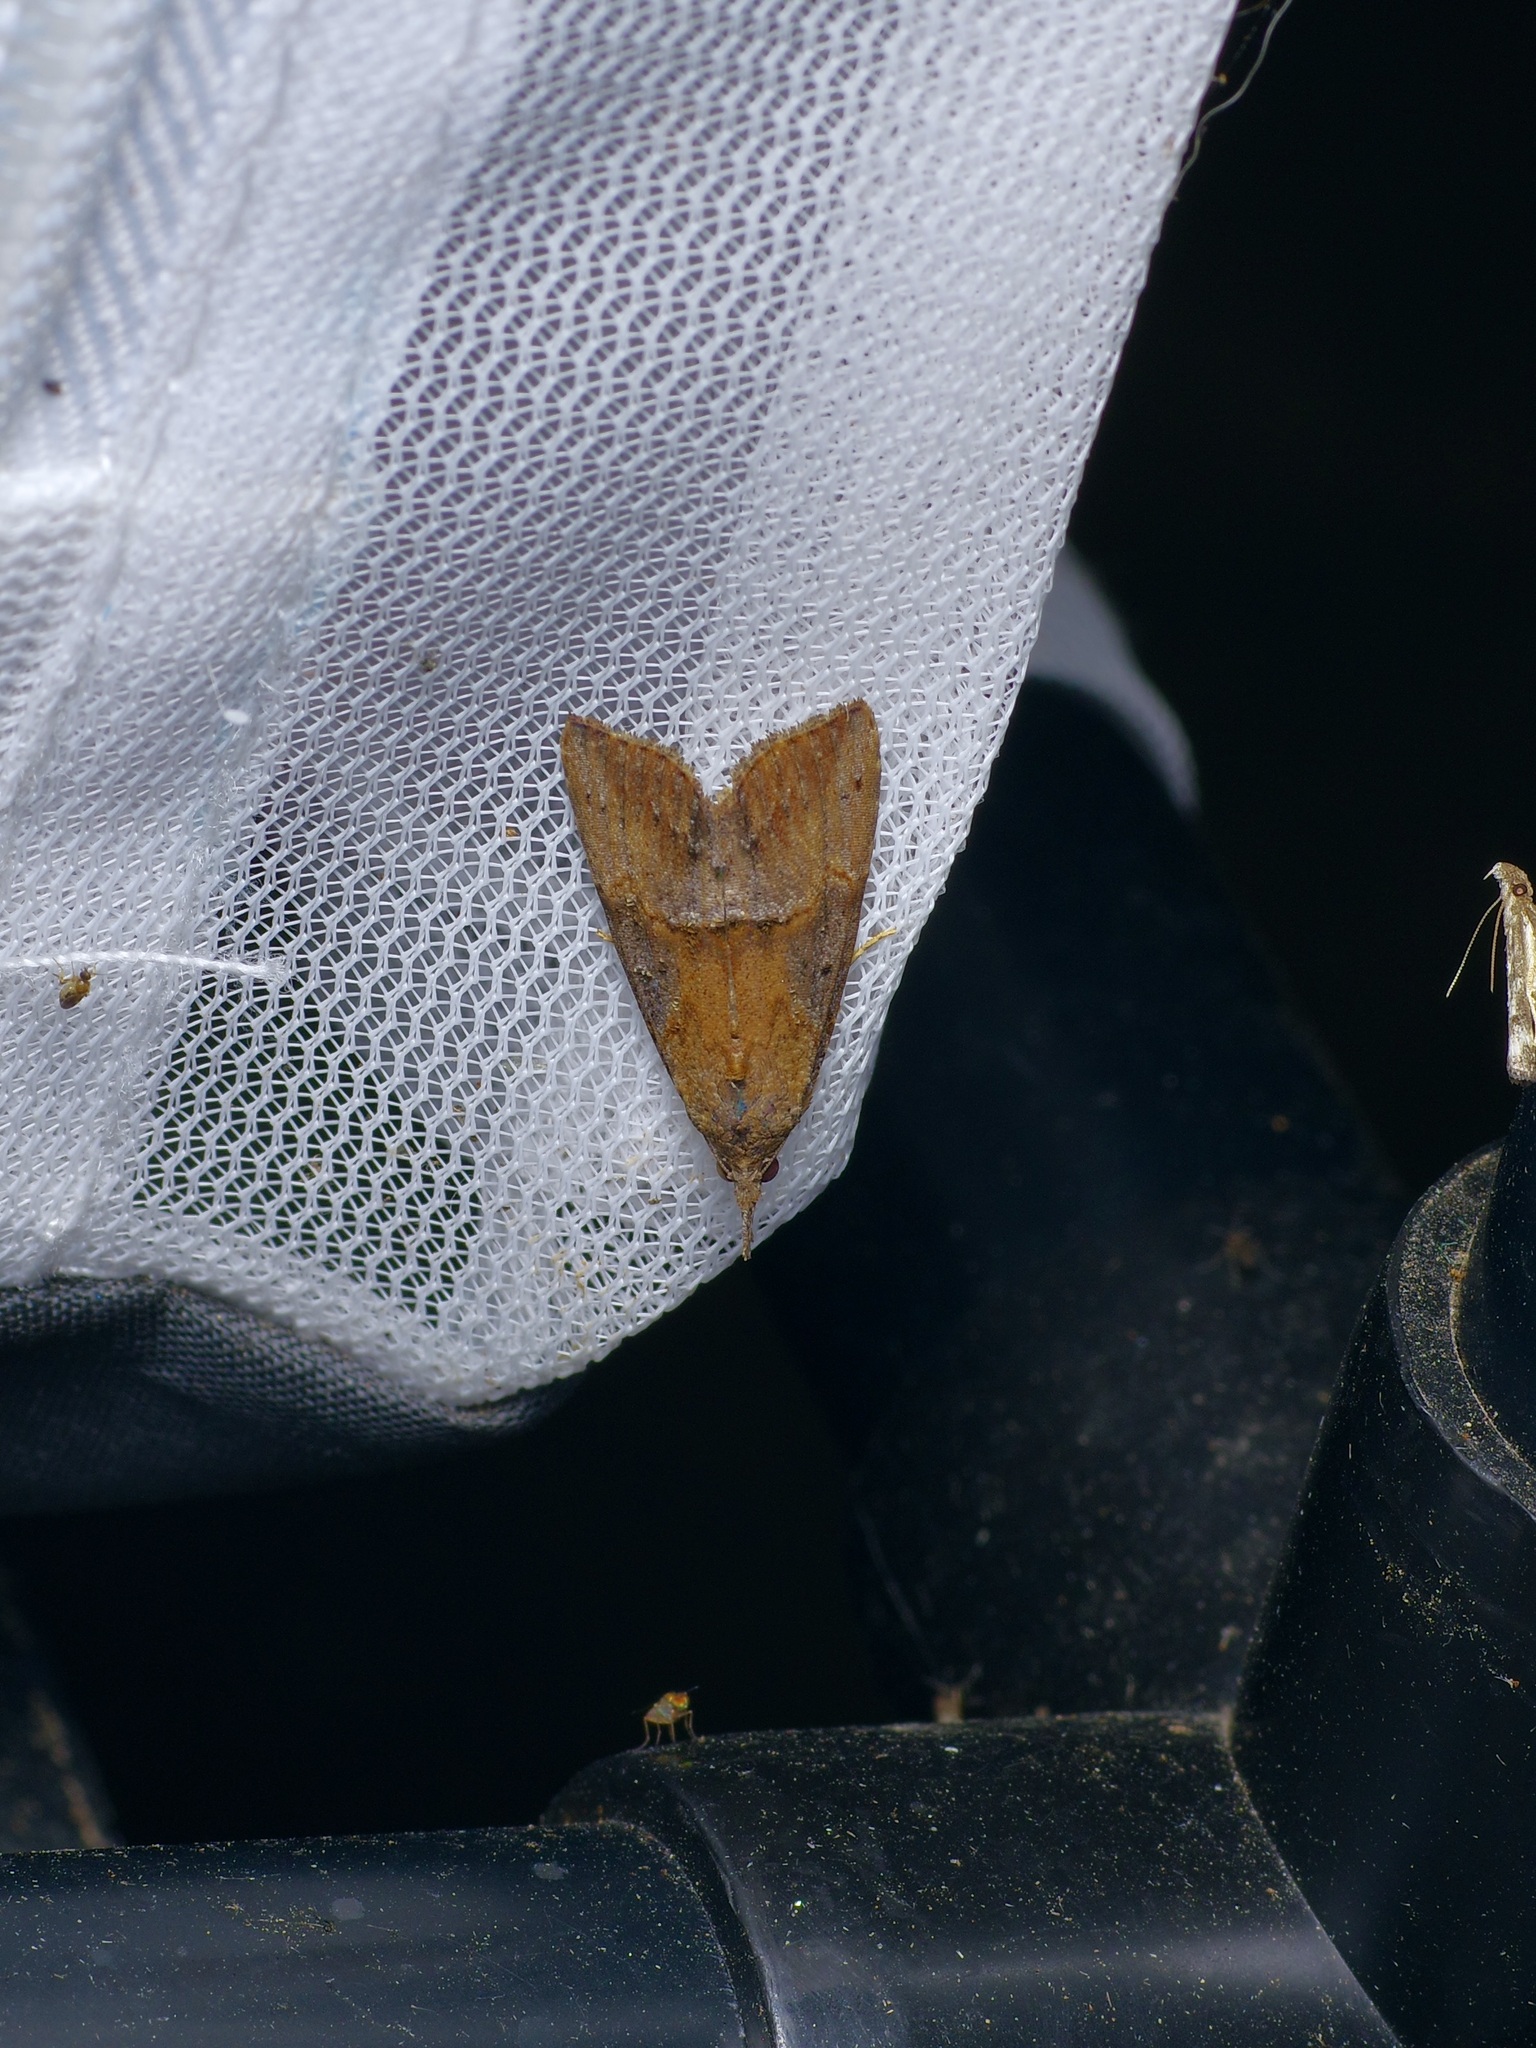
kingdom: Animalia
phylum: Arthropoda
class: Insecta
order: Lepidoptera
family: Erebidae
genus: Hypena
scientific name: Hypena scabra
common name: Green cloverworm
